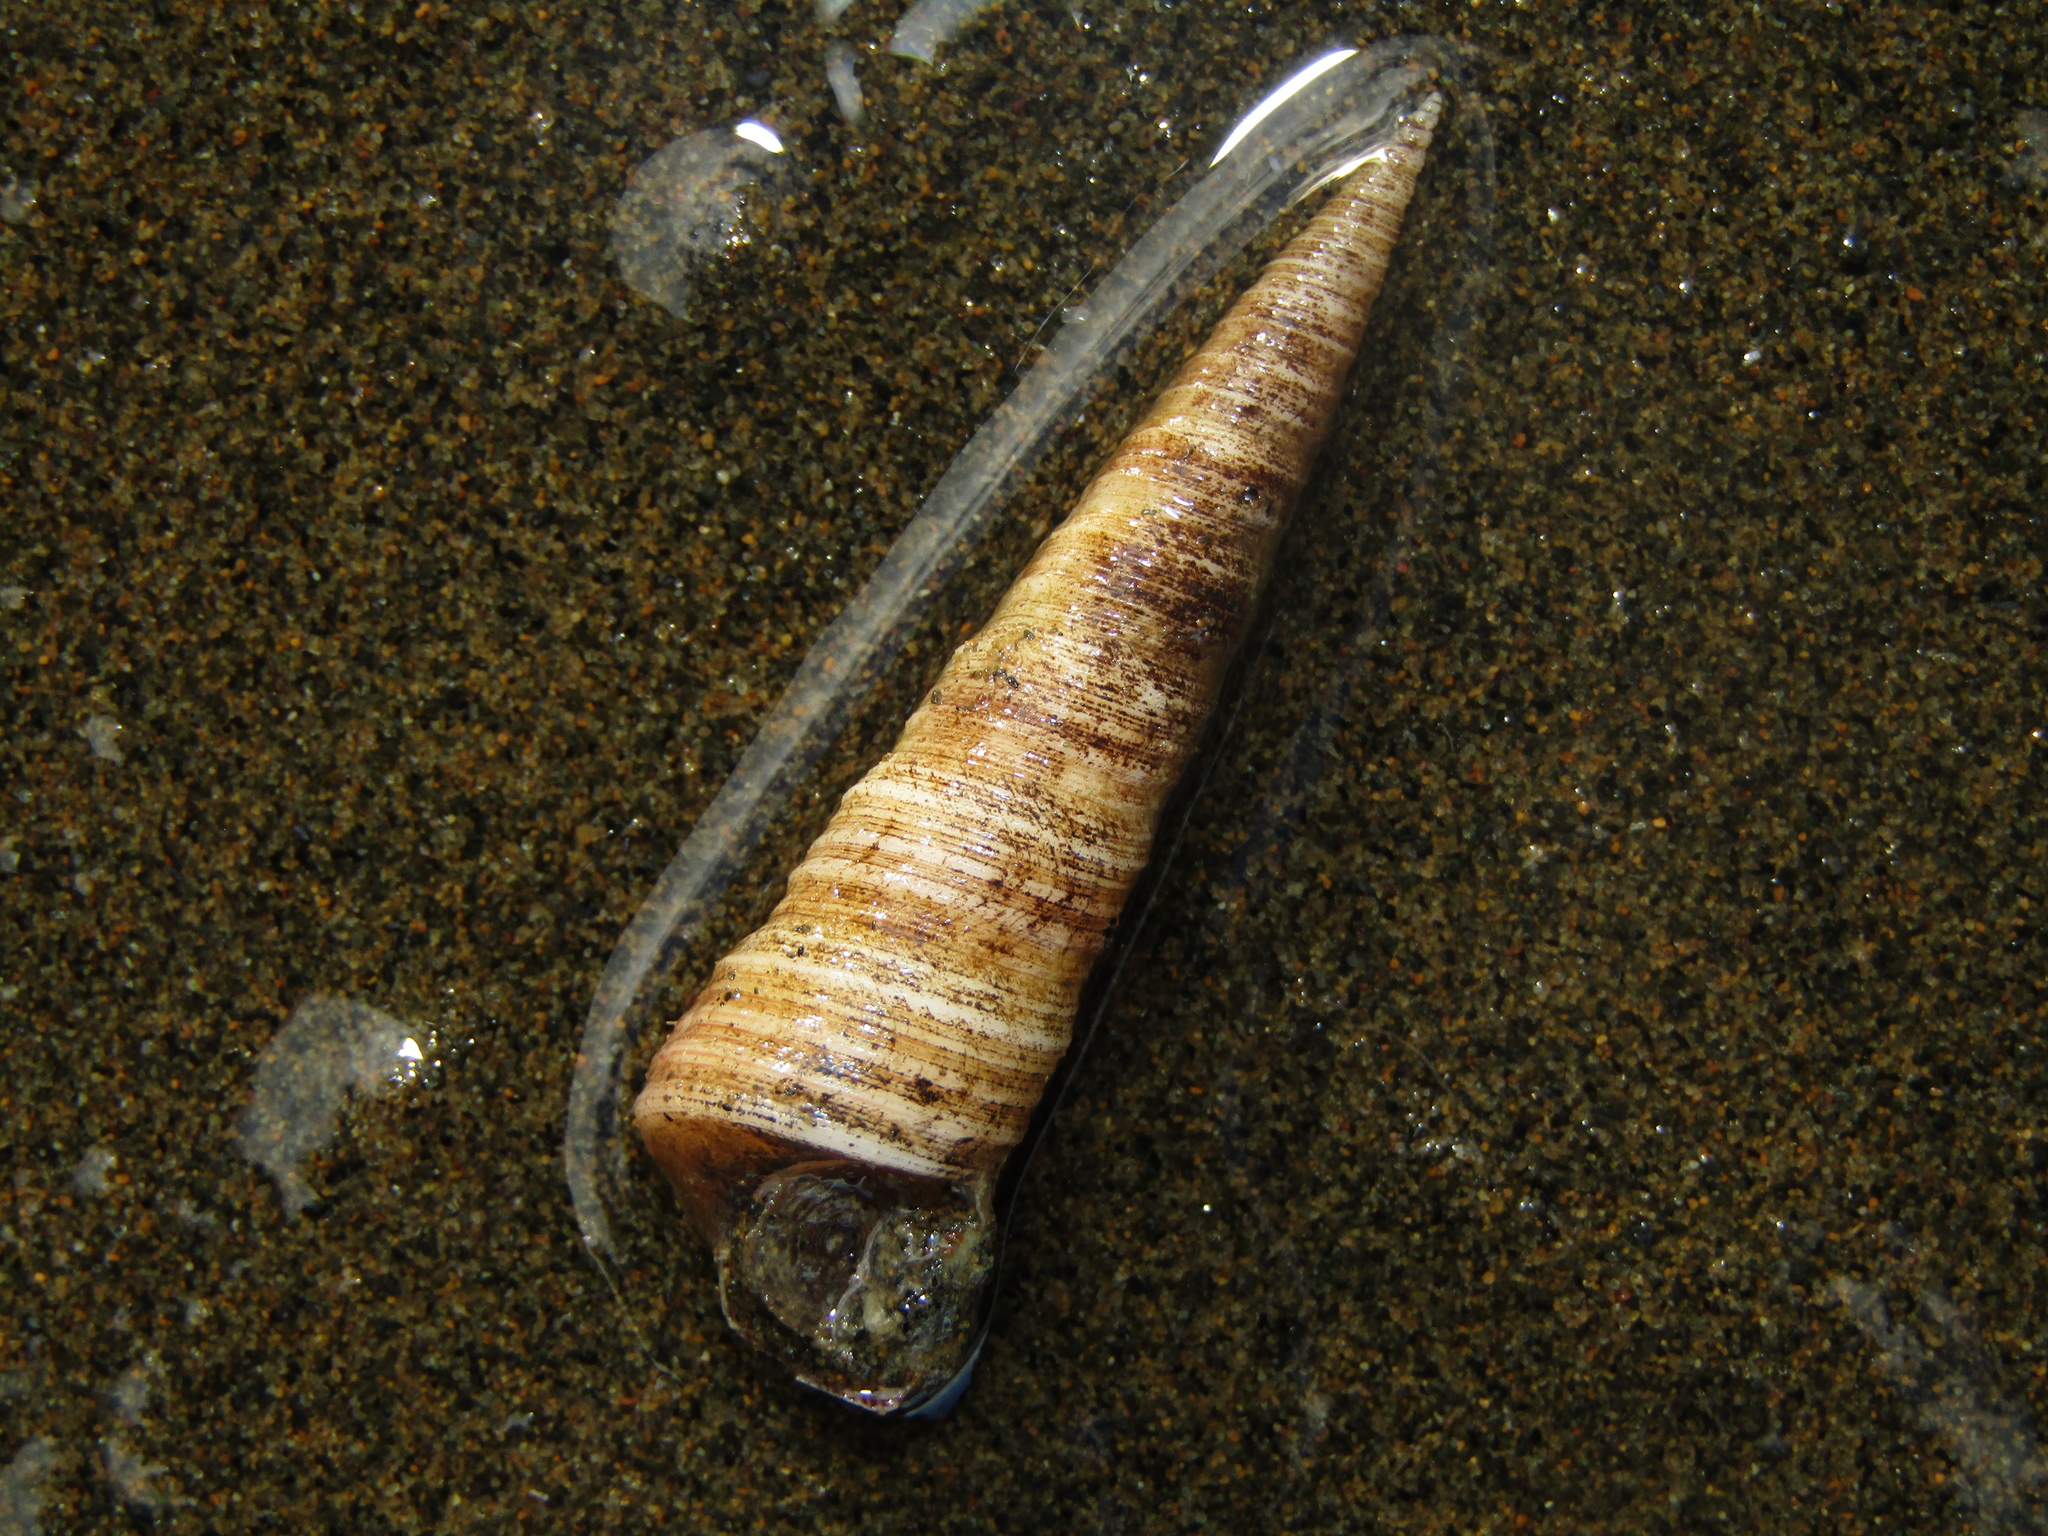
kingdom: Animalia
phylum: Mollusca
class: Gastropoda
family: Turritellidae
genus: Maoricolpus
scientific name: Maoricolpus roseus
